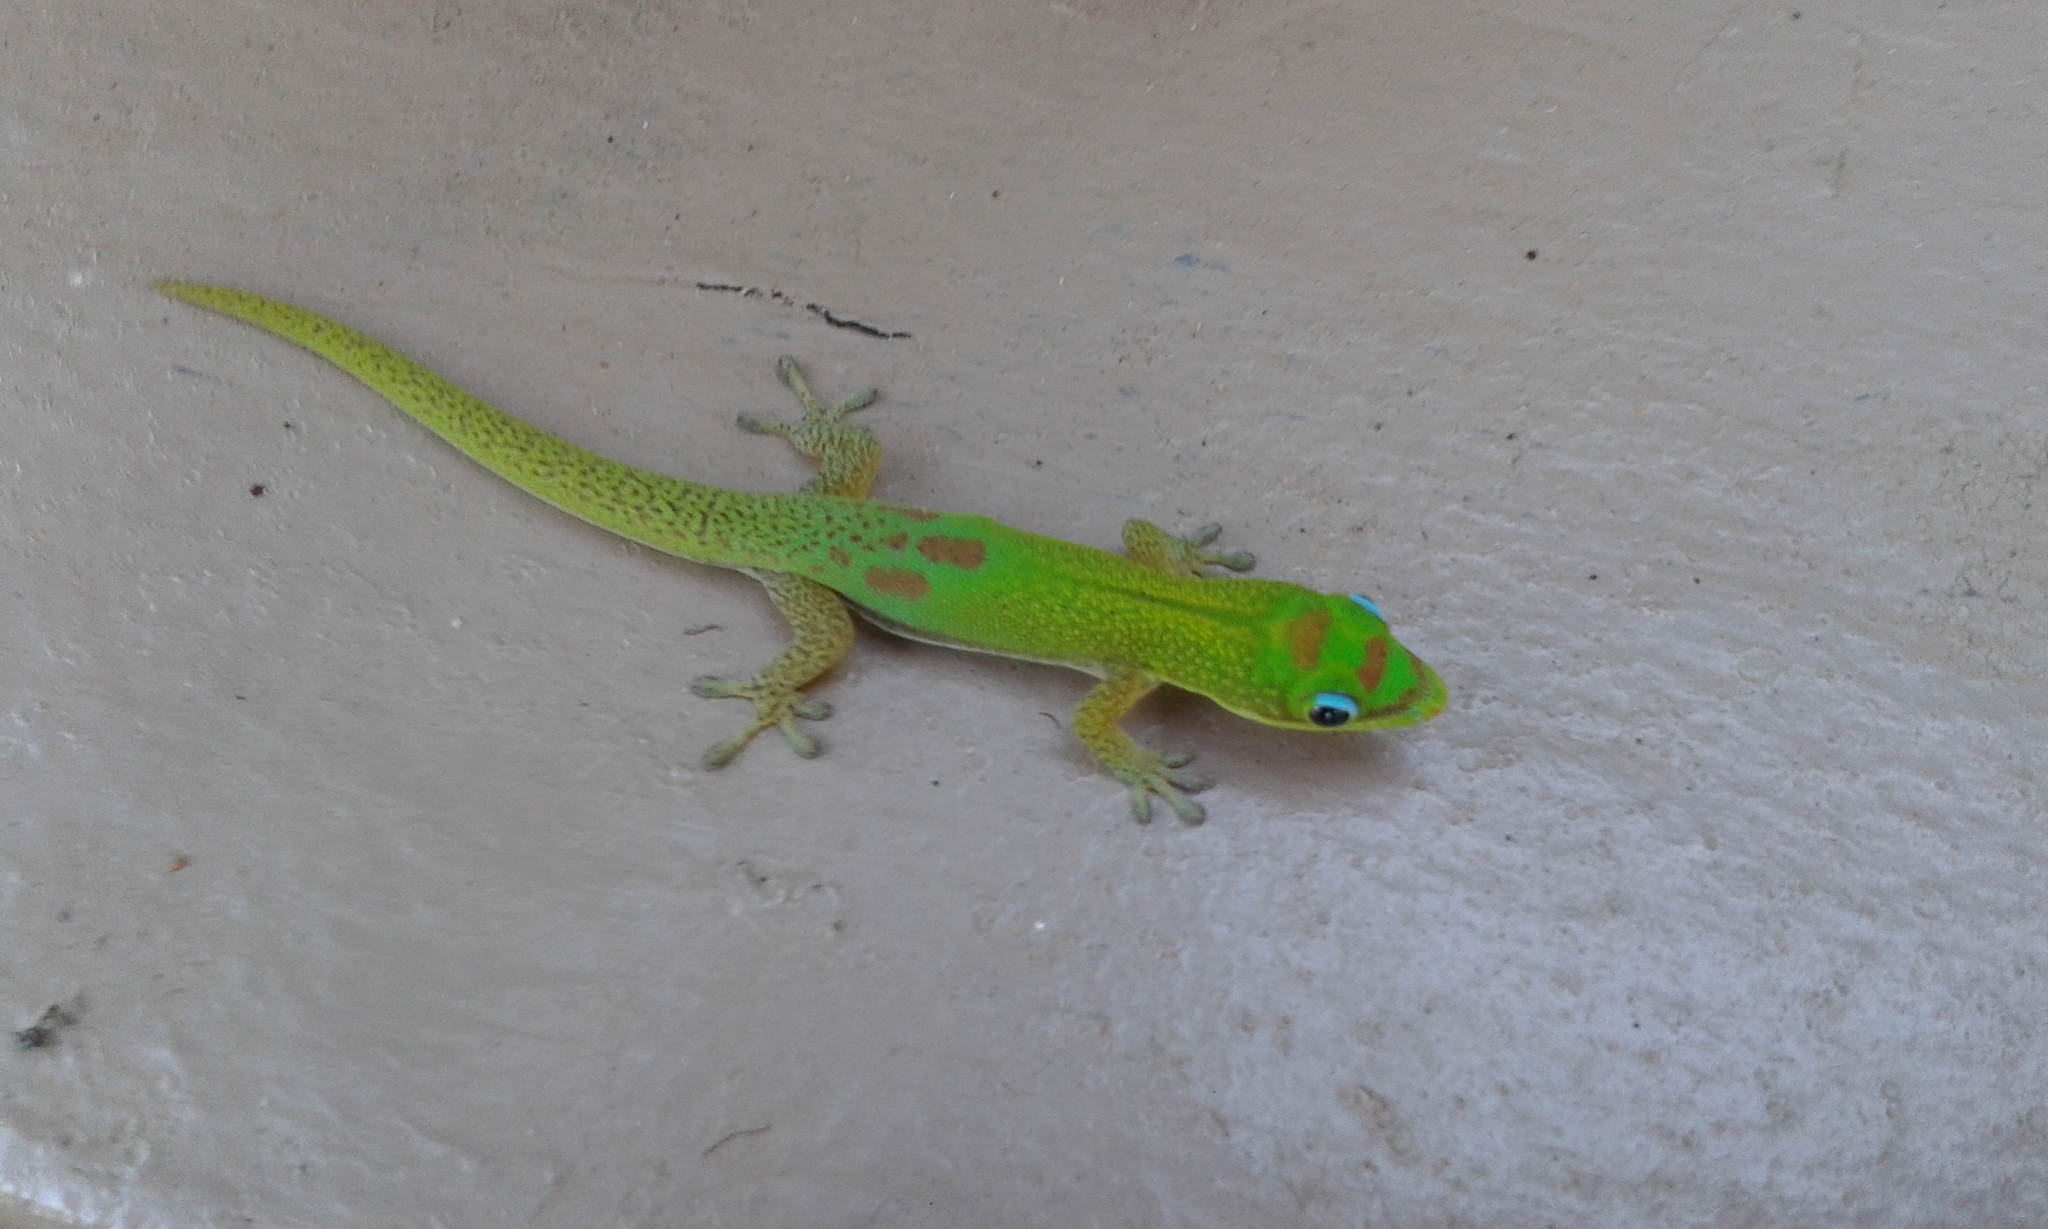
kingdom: Animalia
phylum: Chordata
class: Squamata
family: Gekkonidae
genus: Phelsuma
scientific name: Phelsuma laticauda
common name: Gold dust day gecko
